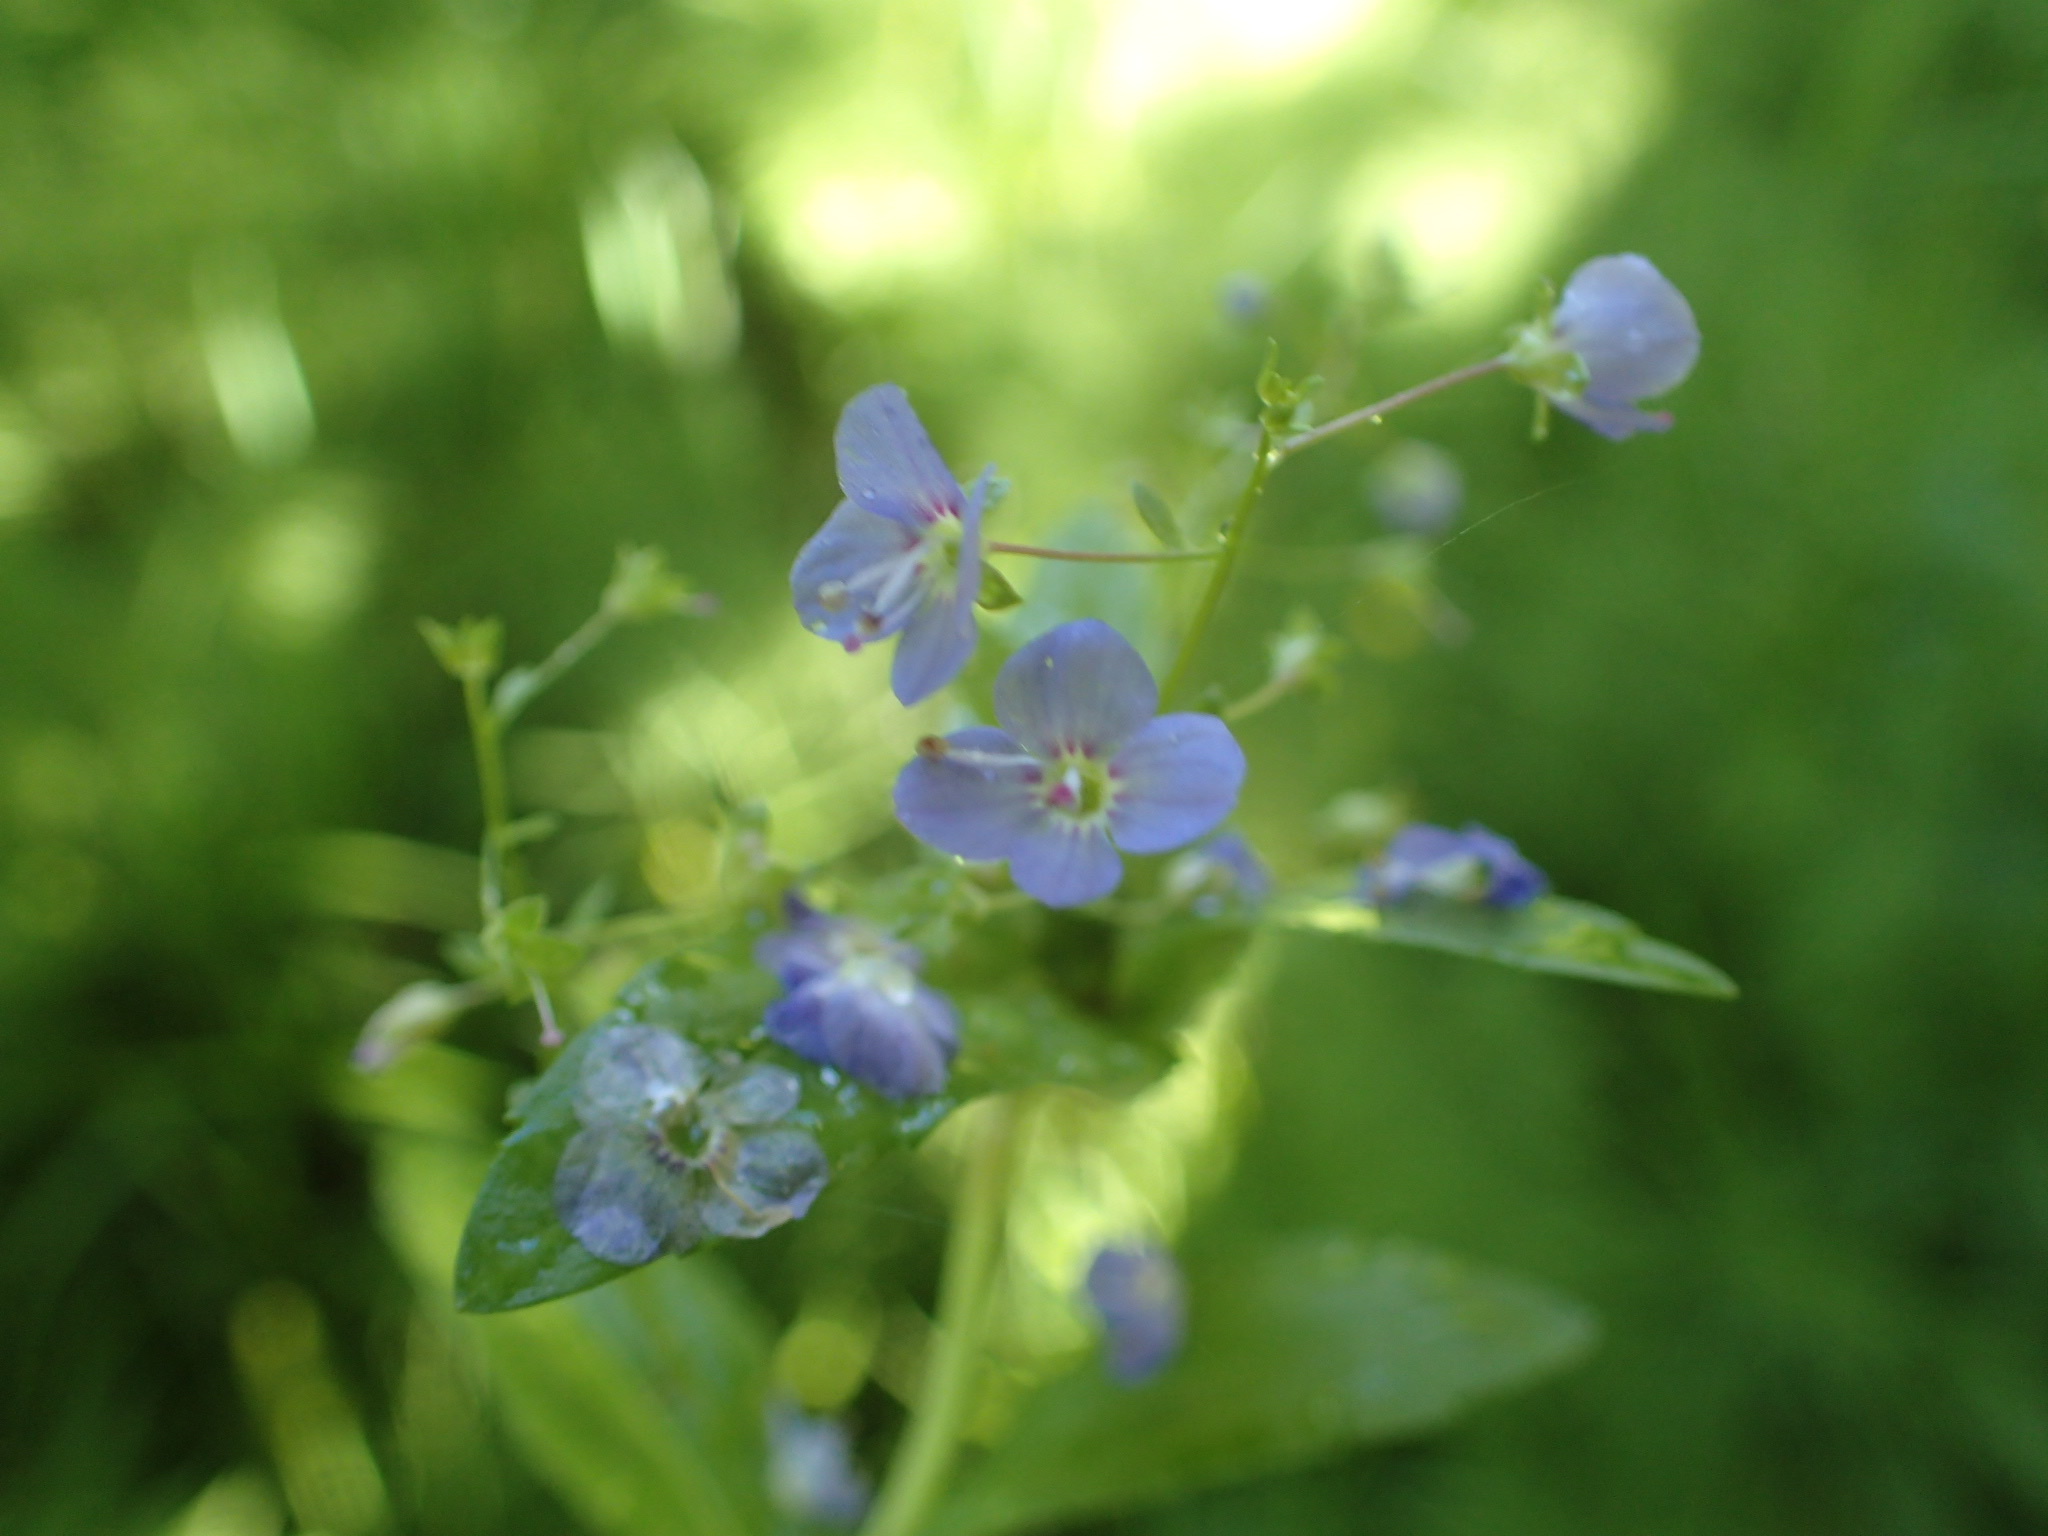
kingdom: Plantae
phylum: Tracheophyta
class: Magnoliopsida
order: Lamiales
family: Plantaginaceae
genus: Veronica
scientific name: Veronica americana
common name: American brooklime
